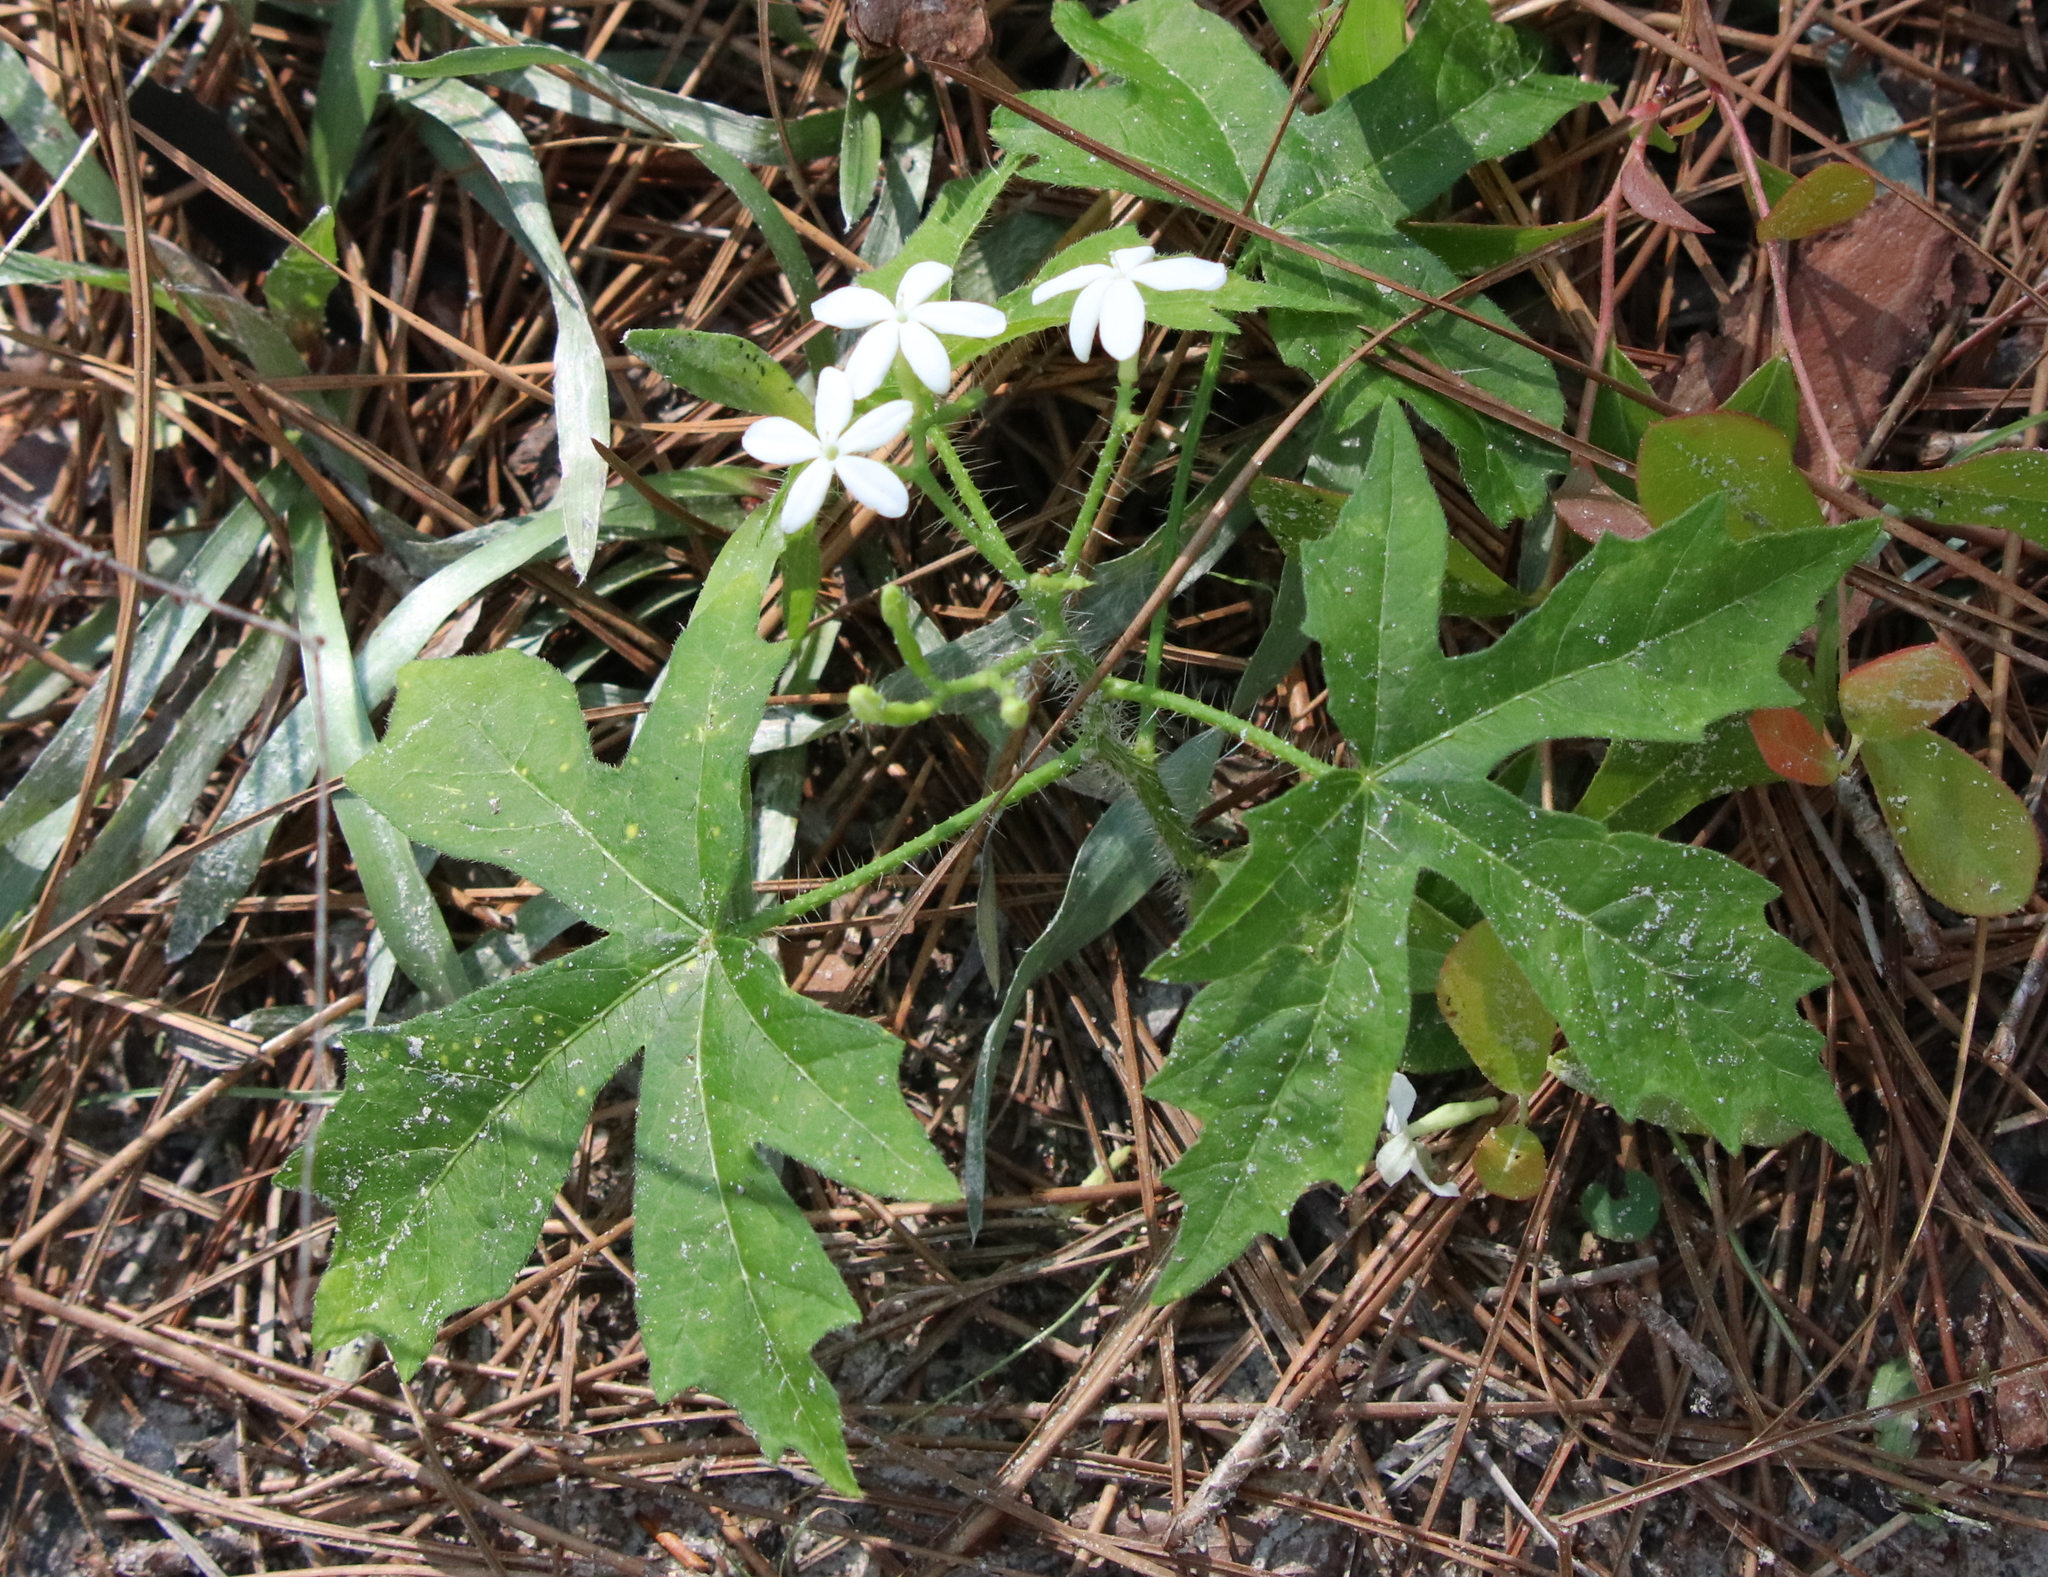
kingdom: Plantae
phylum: Tracheophyta
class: Magnoliopsida
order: Malpighiales
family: Euphorbiaceae
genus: Cnidoscolus
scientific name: Cnidoscolus stimulosus
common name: Bull-nettle
